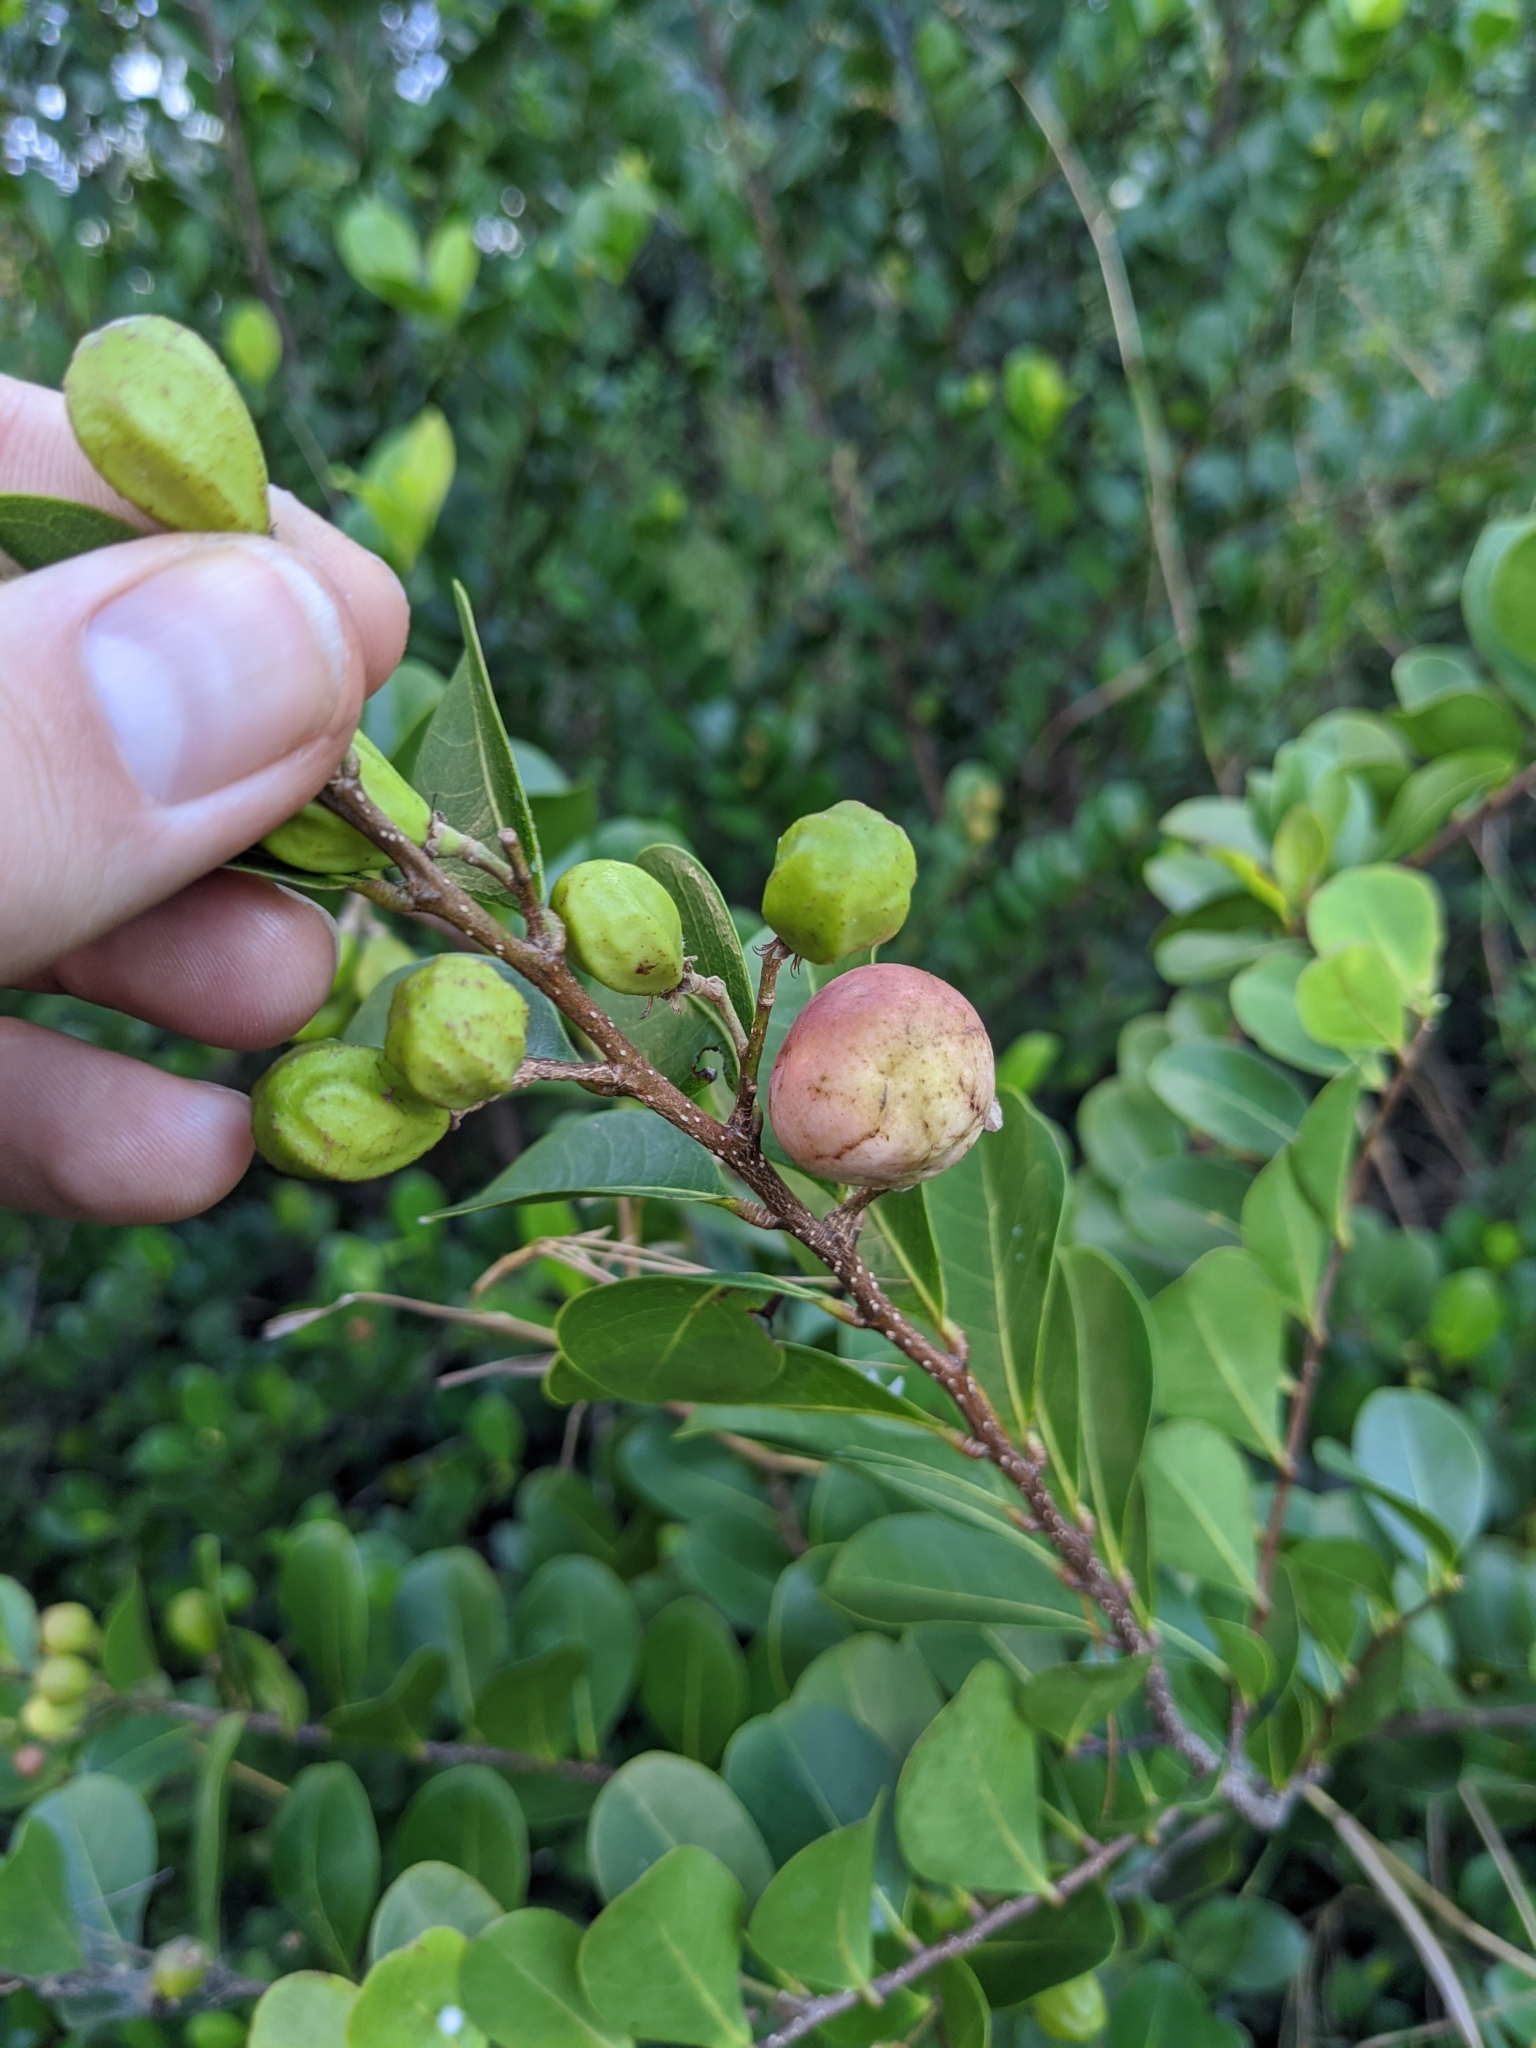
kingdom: Plantae
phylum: Tracheophyta
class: Magnoliopsida
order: Malpighiales
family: Chrysobalanaceae
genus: Chrysobalanus
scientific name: Chrysobalanus icaco
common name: Coco plum
